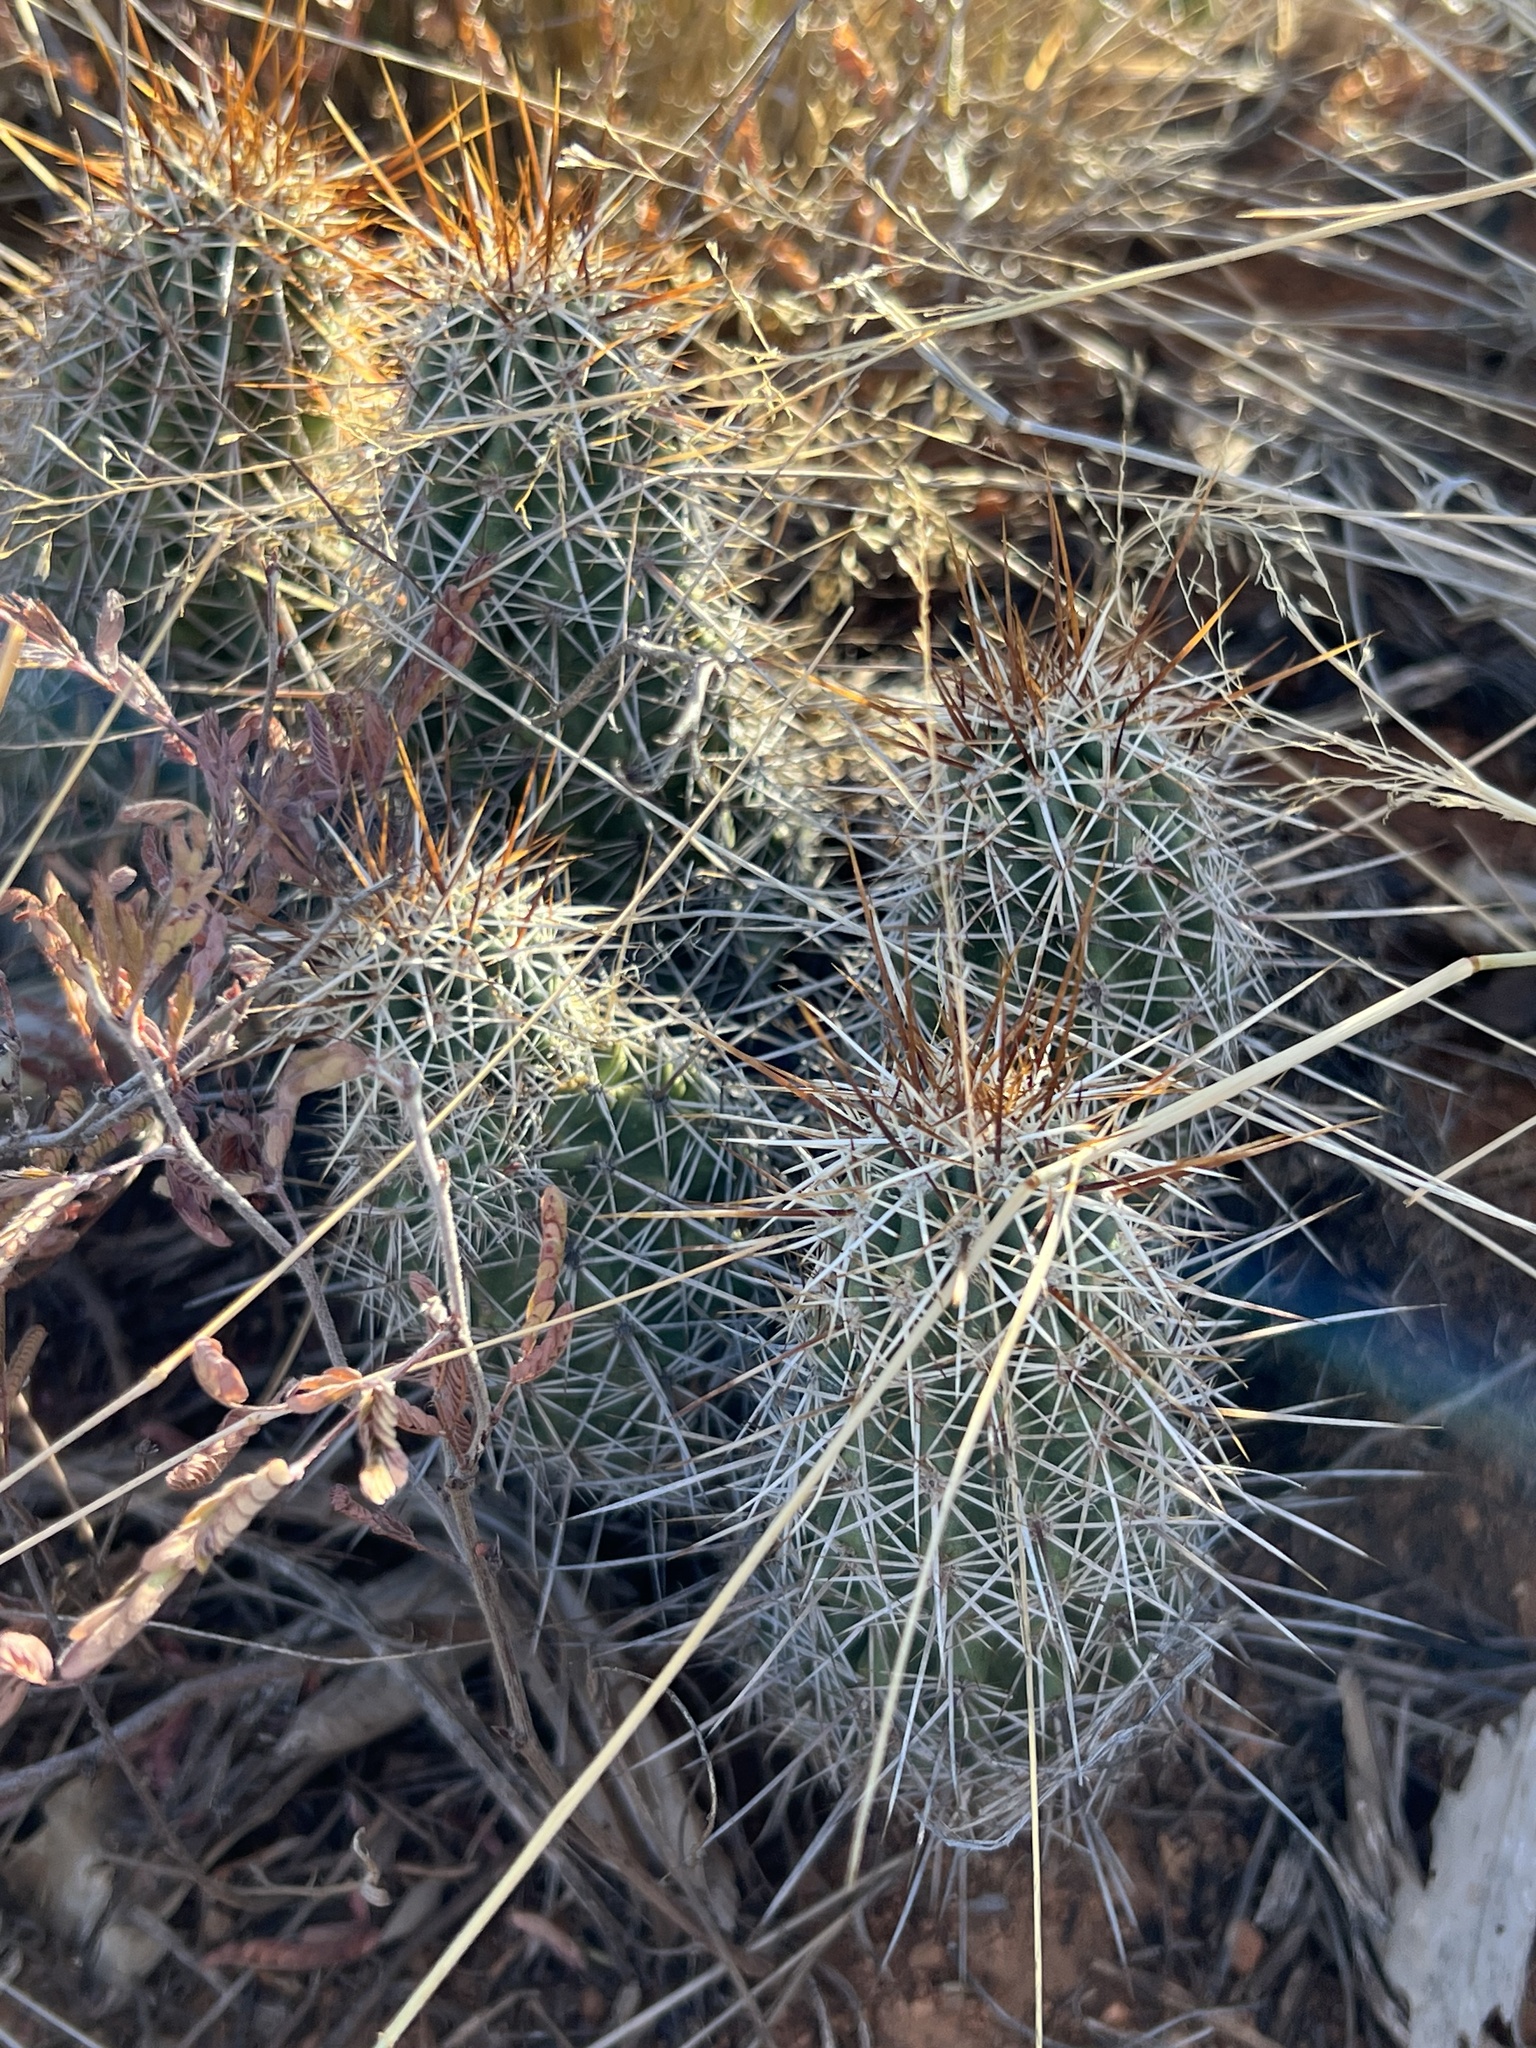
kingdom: Plantae
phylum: Tracheophyta
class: Magnoliopsida
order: Caryophyllales
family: Cactaceae
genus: Echinocereus
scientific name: Echinocereus fasciculatus
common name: Bundle hedgehog
